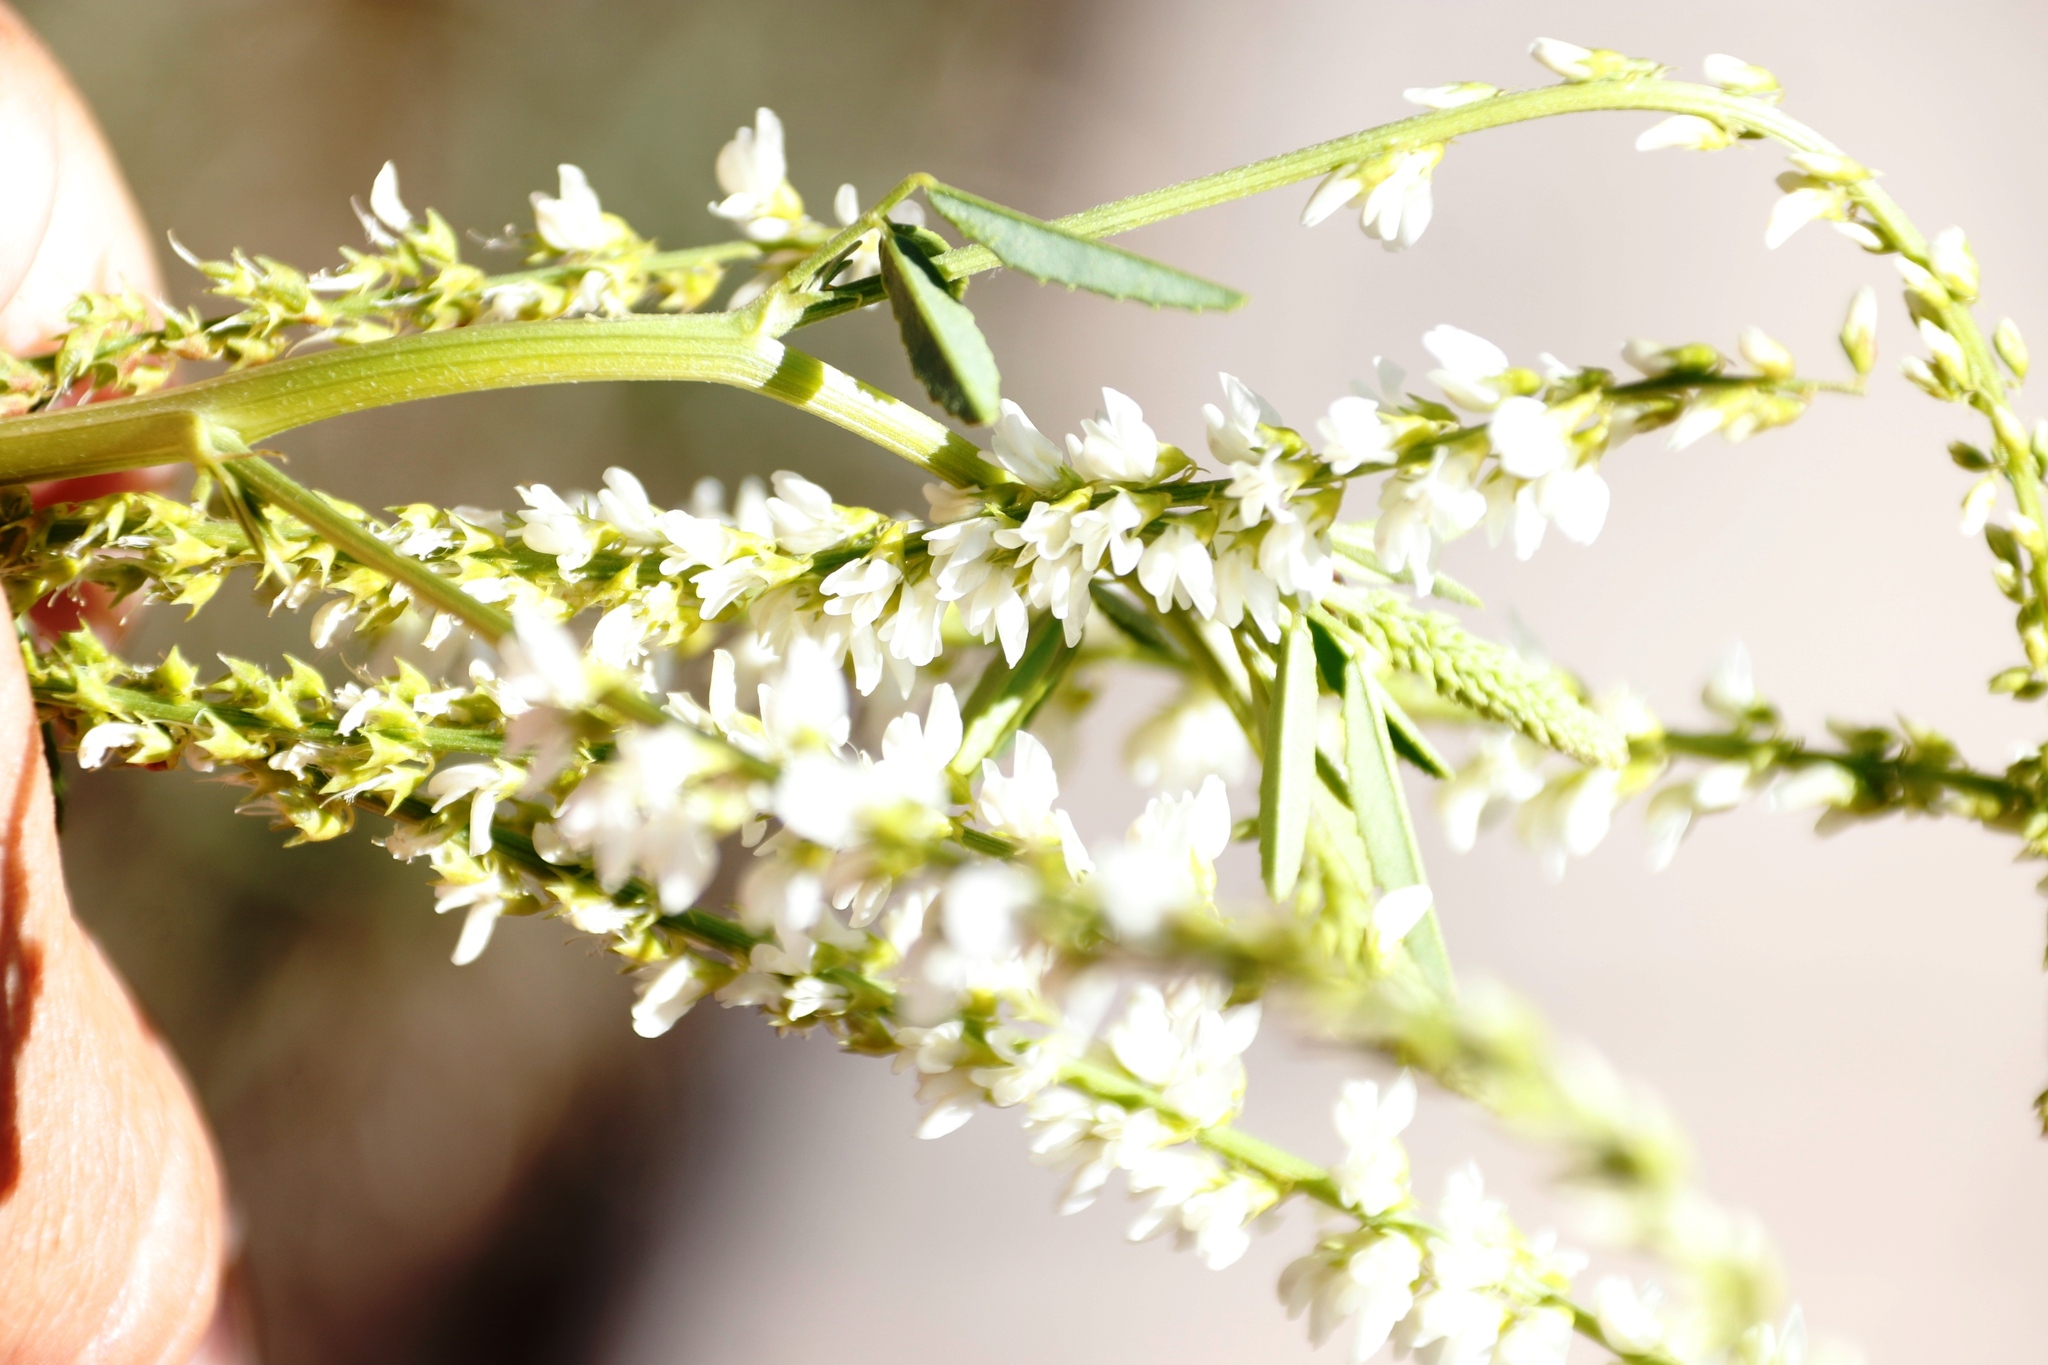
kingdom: Plantae
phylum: Tracheophyta
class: Magnoliopsida
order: Fabales
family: Fabaceae
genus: Melilotus
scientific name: Melilotus albus
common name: White melilot
